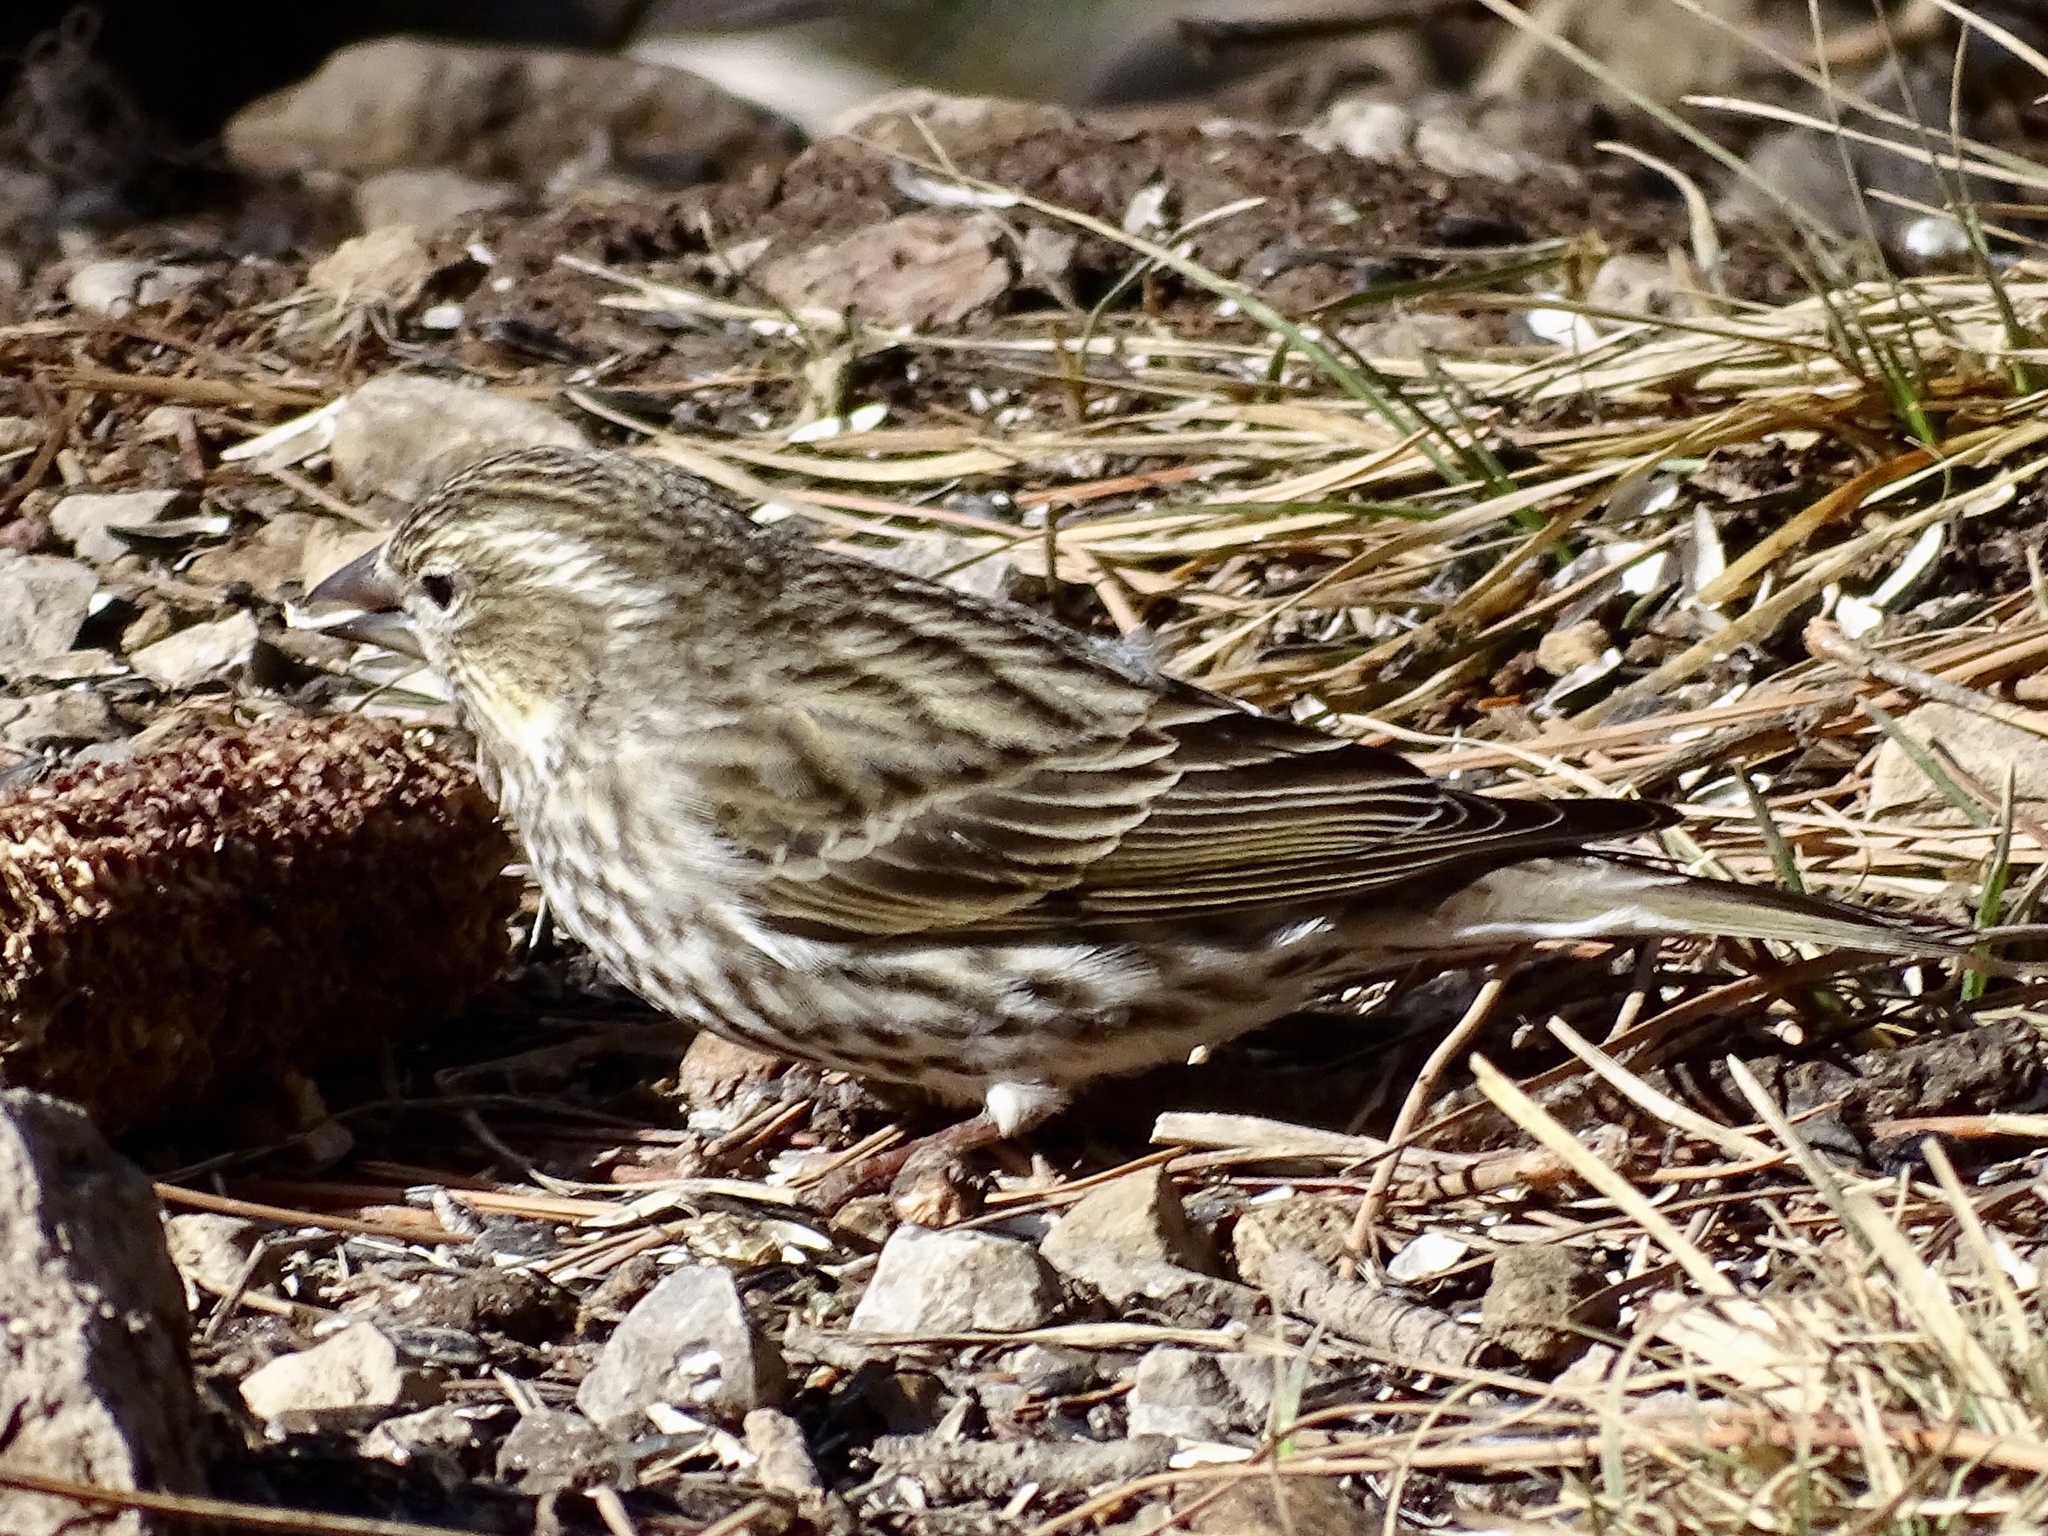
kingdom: Animalia
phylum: Chordata
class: Aves
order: Passeriformes
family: Fringillidae
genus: Haemorhous
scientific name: Haemorhous cassinii
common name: Cassin's finch
